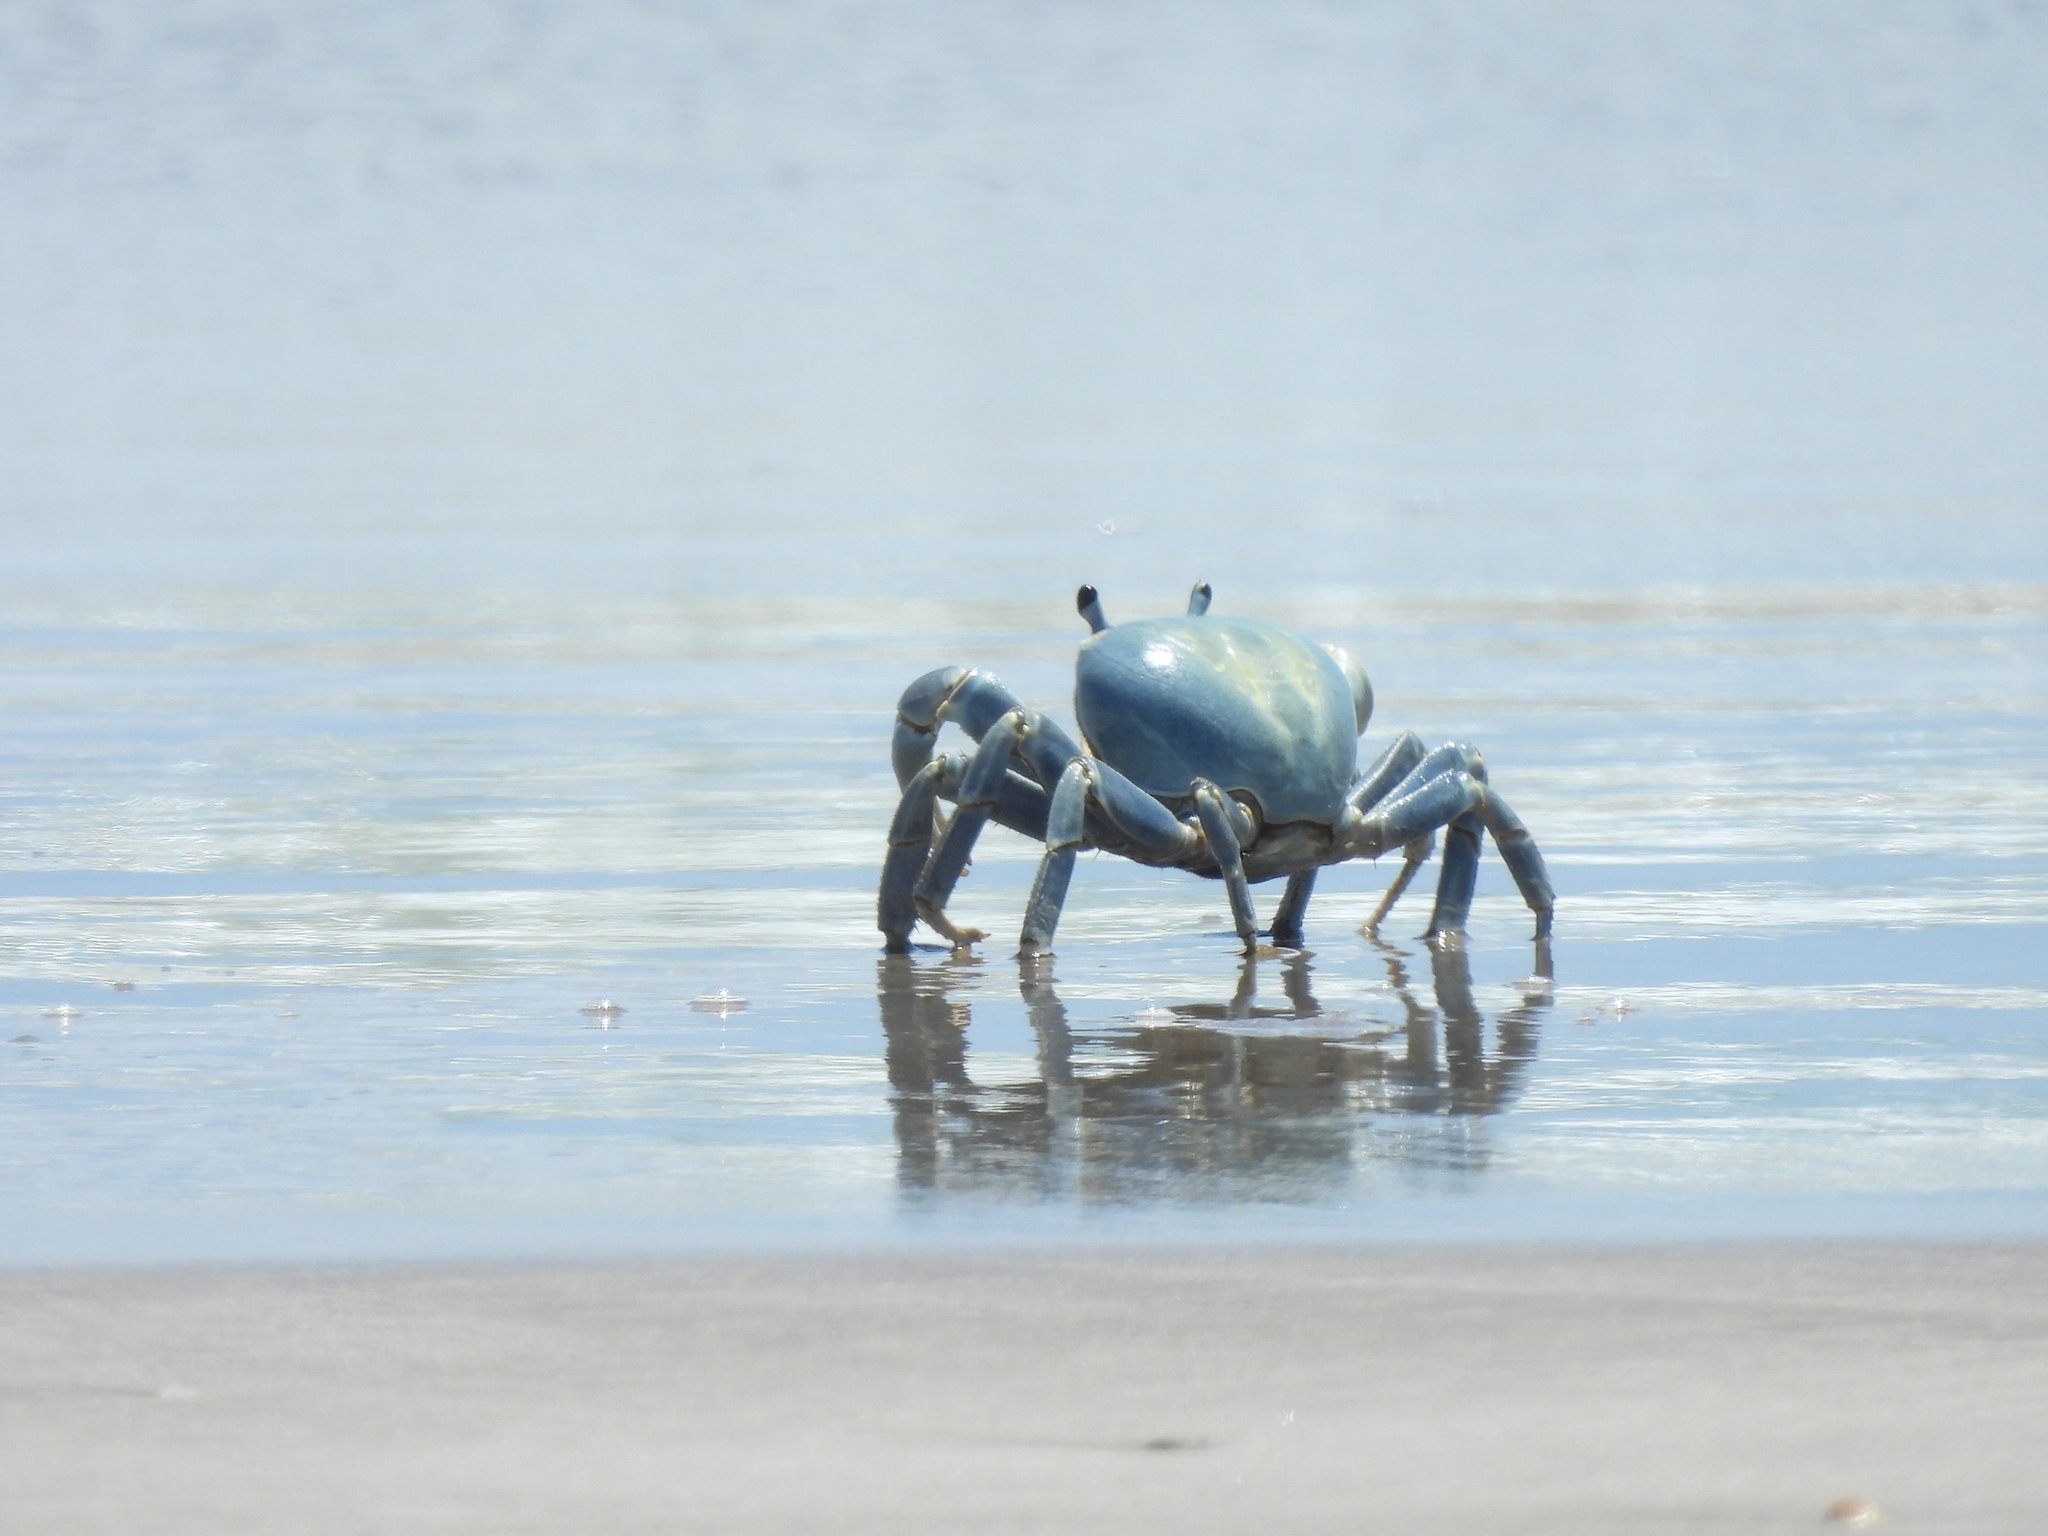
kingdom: Animalia
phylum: Arthropoda
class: Malacostraca
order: Decapoda
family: Gecarcinidae
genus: Cardisoma
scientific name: Cardisoma guanhumi
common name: Great land crab
